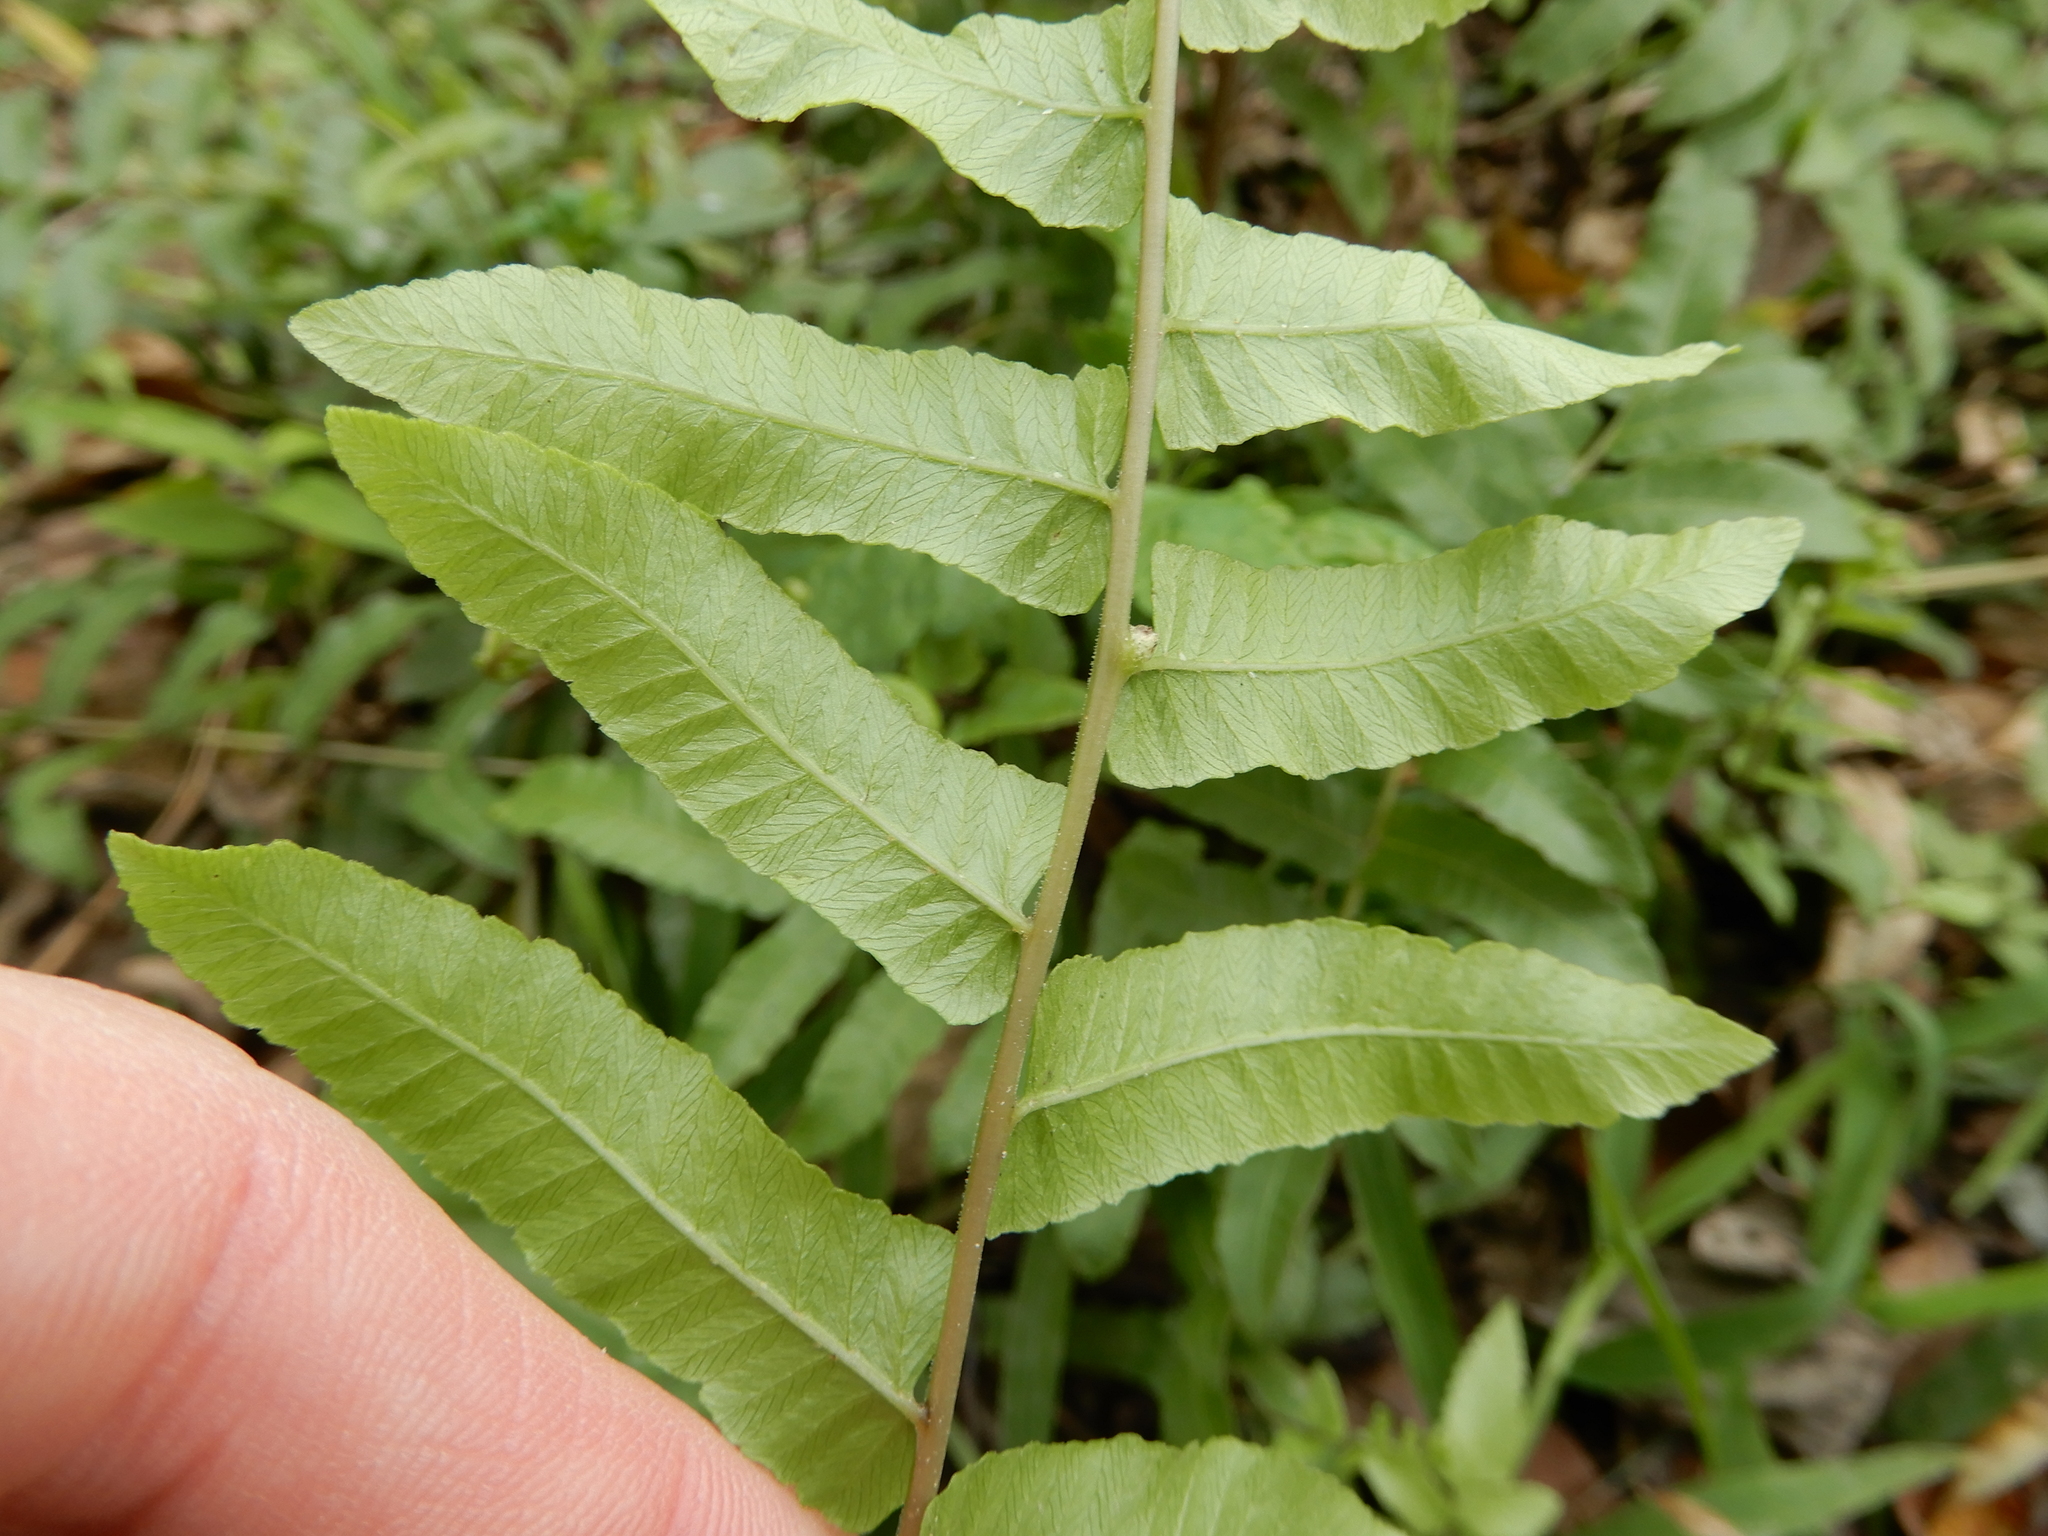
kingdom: Plantae
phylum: Tracheophyta
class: Polypodiopsida
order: Polypodiales
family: Thelypteridaceae
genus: Ampelopteris
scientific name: Ampelopteris prolifera
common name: Riverine scrambler
